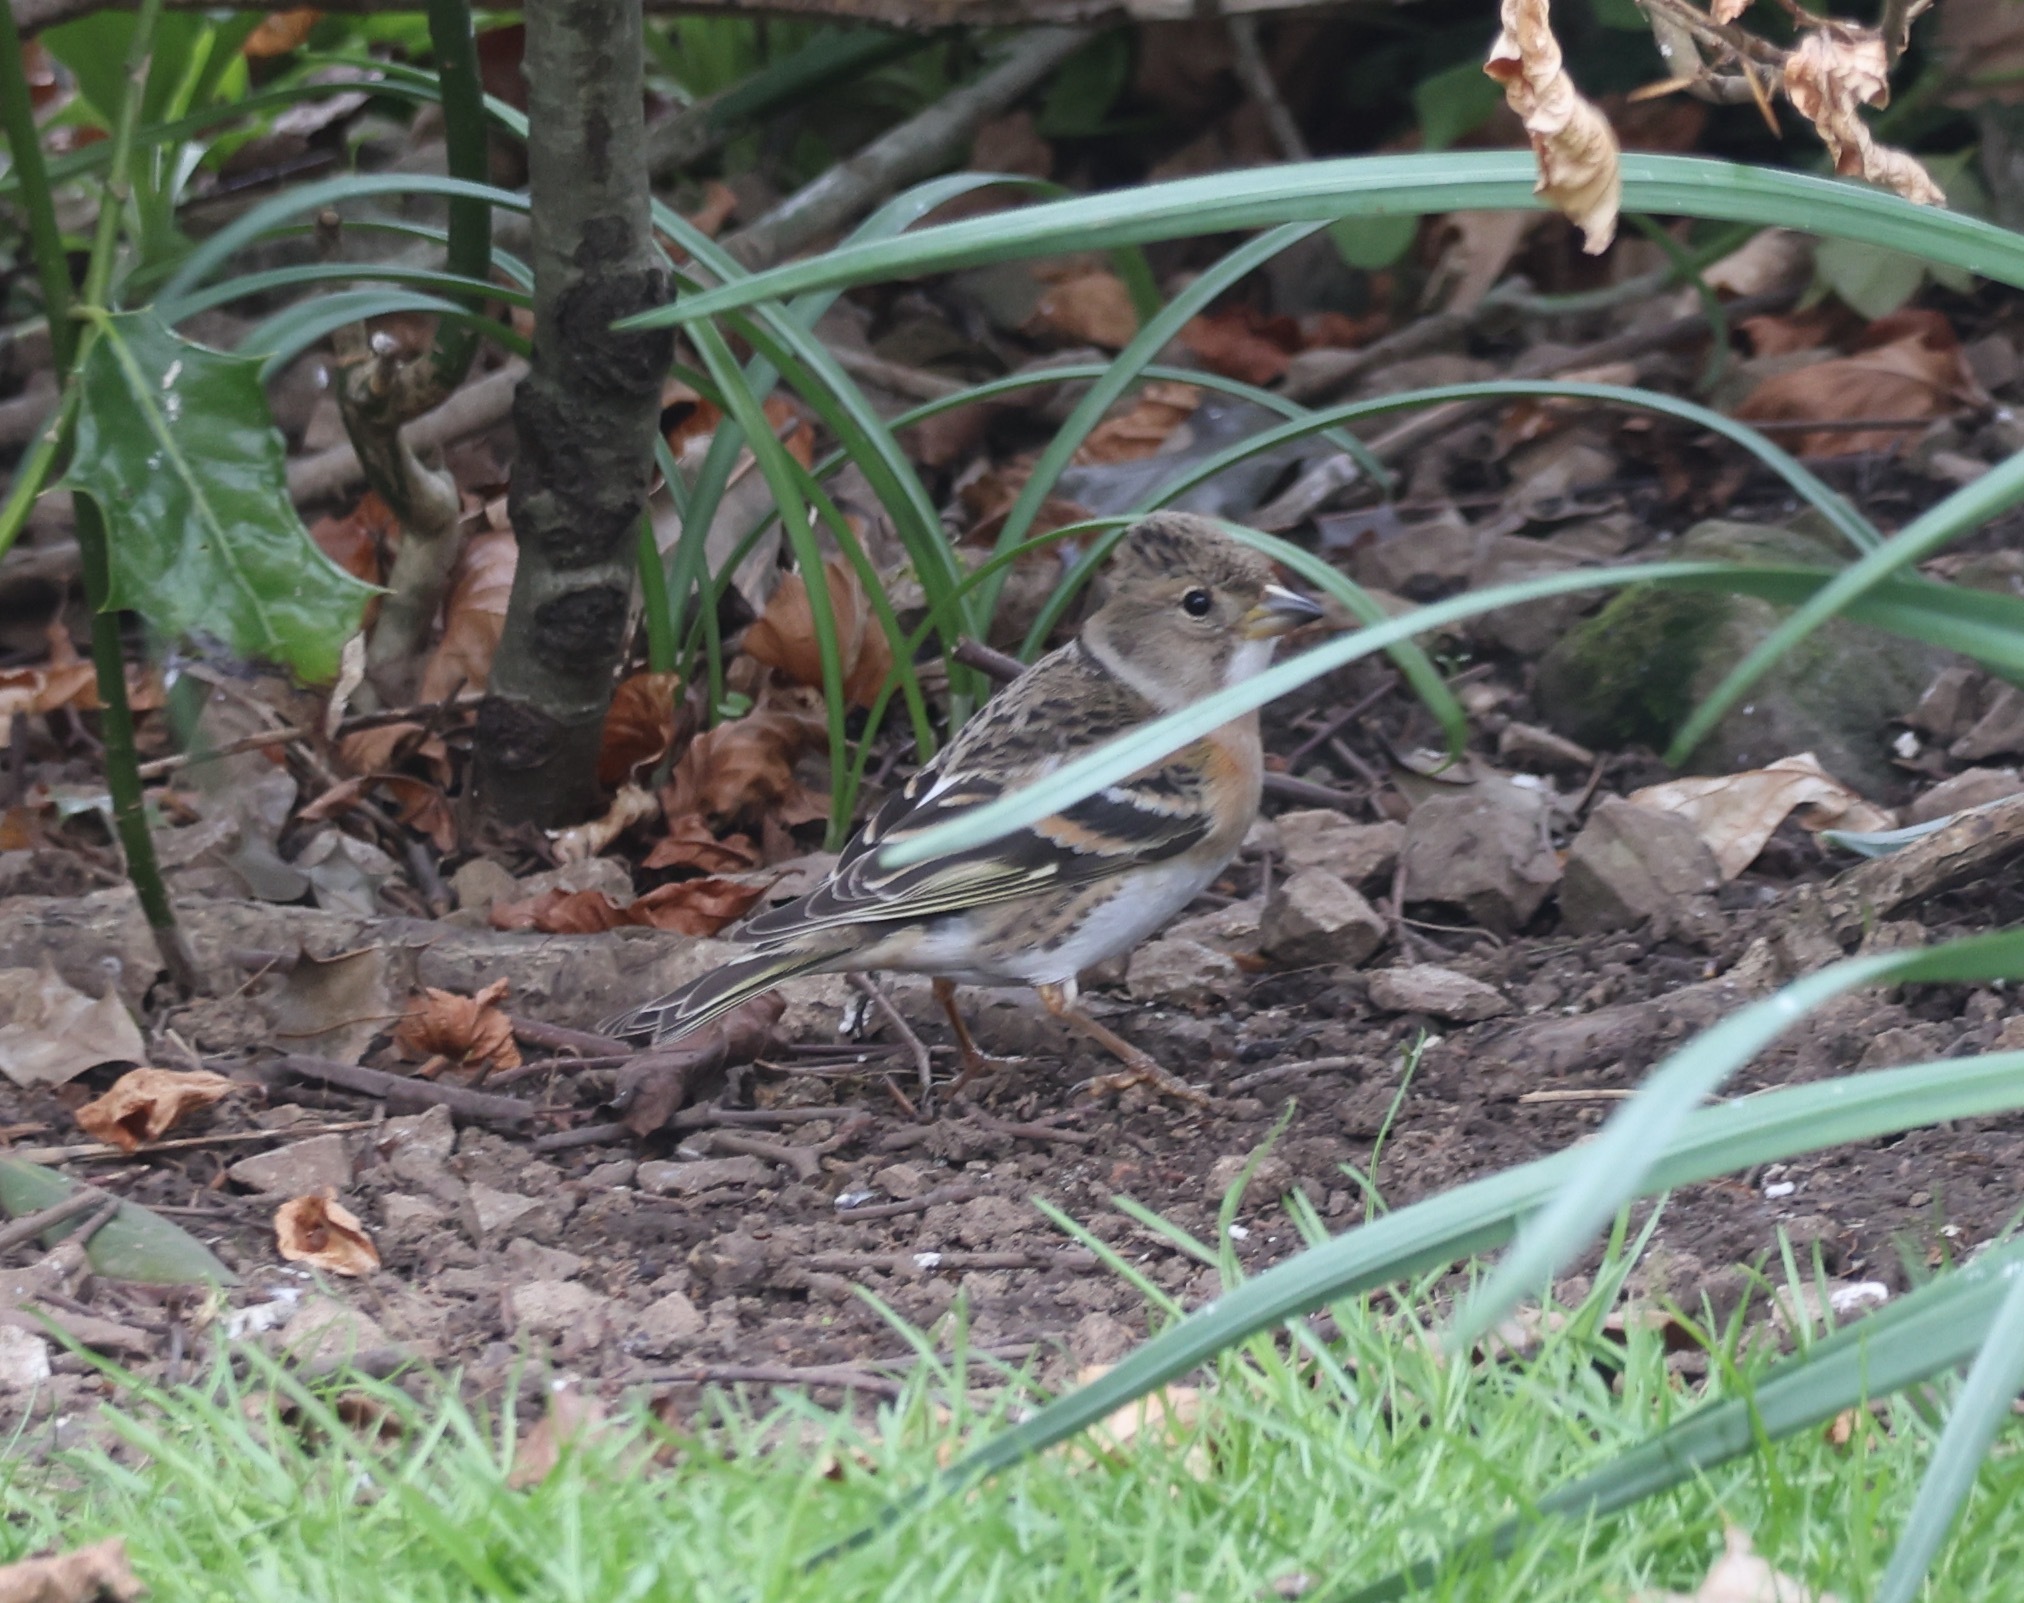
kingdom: Animalia
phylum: Chordata
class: Aves
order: Passeriformes
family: Fringillidae
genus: Fringilla
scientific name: Fringilla montifringilla
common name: Brambling
